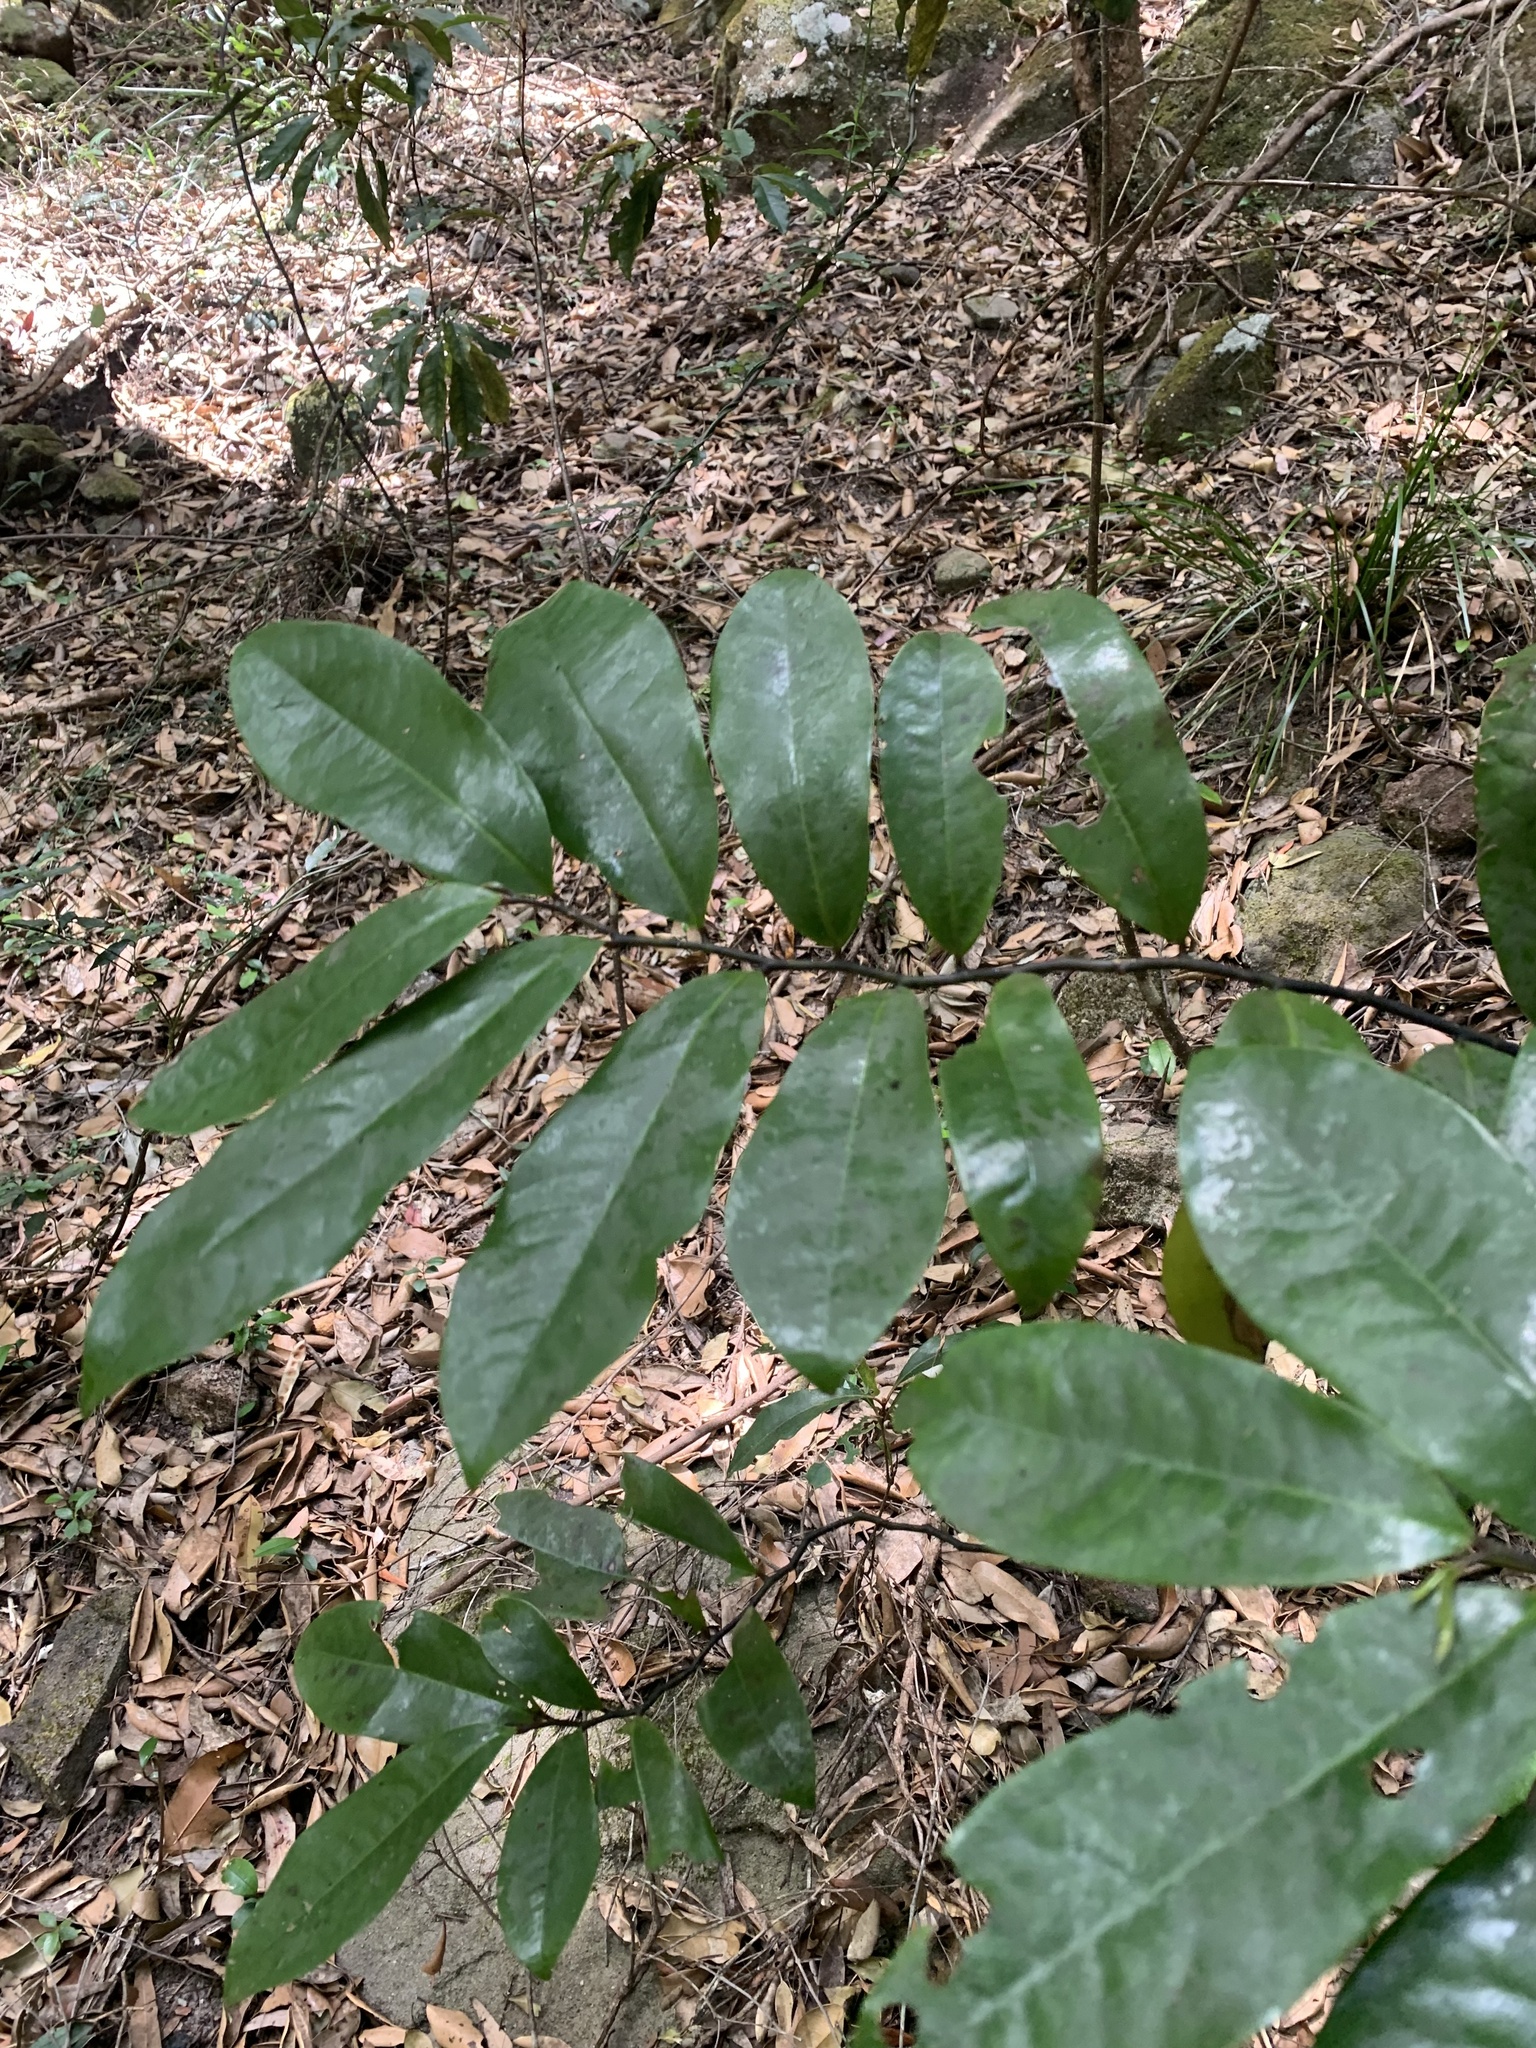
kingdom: Plantae
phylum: Tracheophyta
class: Magnoliopsida
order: Magnoliales
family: Eupomatiaceae
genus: Eupomatia
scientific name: Eupomatia laurina
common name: Bolwarra
